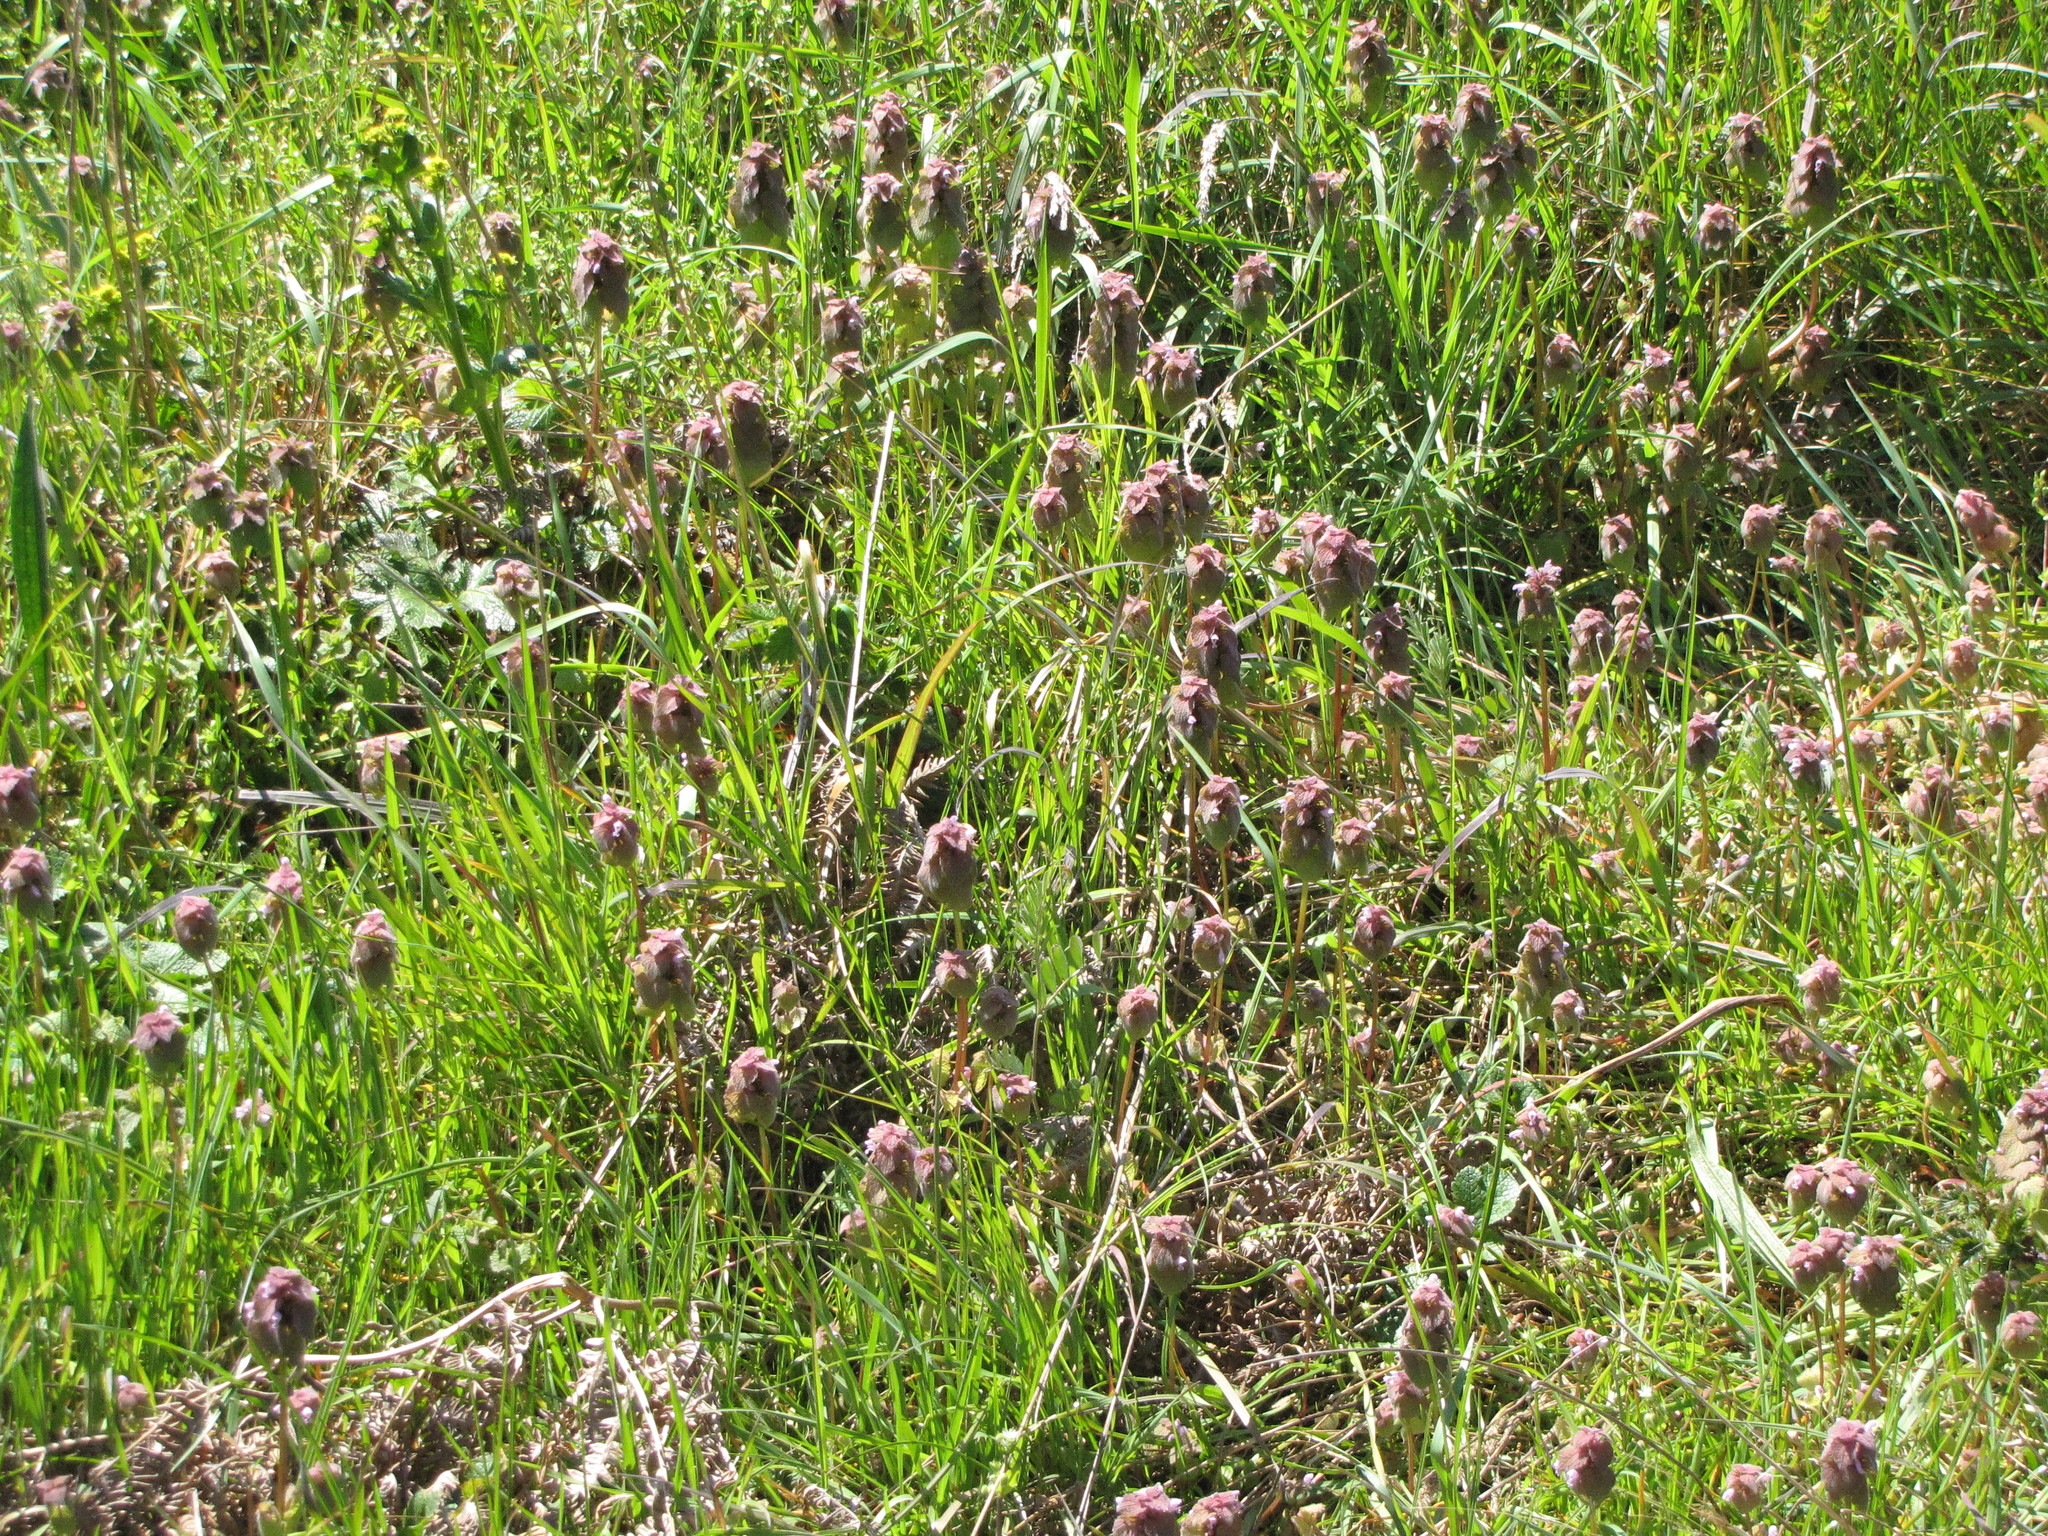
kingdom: Plantae
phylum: Tracheophyta
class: Magnoliopsida
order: Lamiales
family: Lamiaceae
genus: Lamium
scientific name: Lamium purpureum
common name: Red dead-nettle
